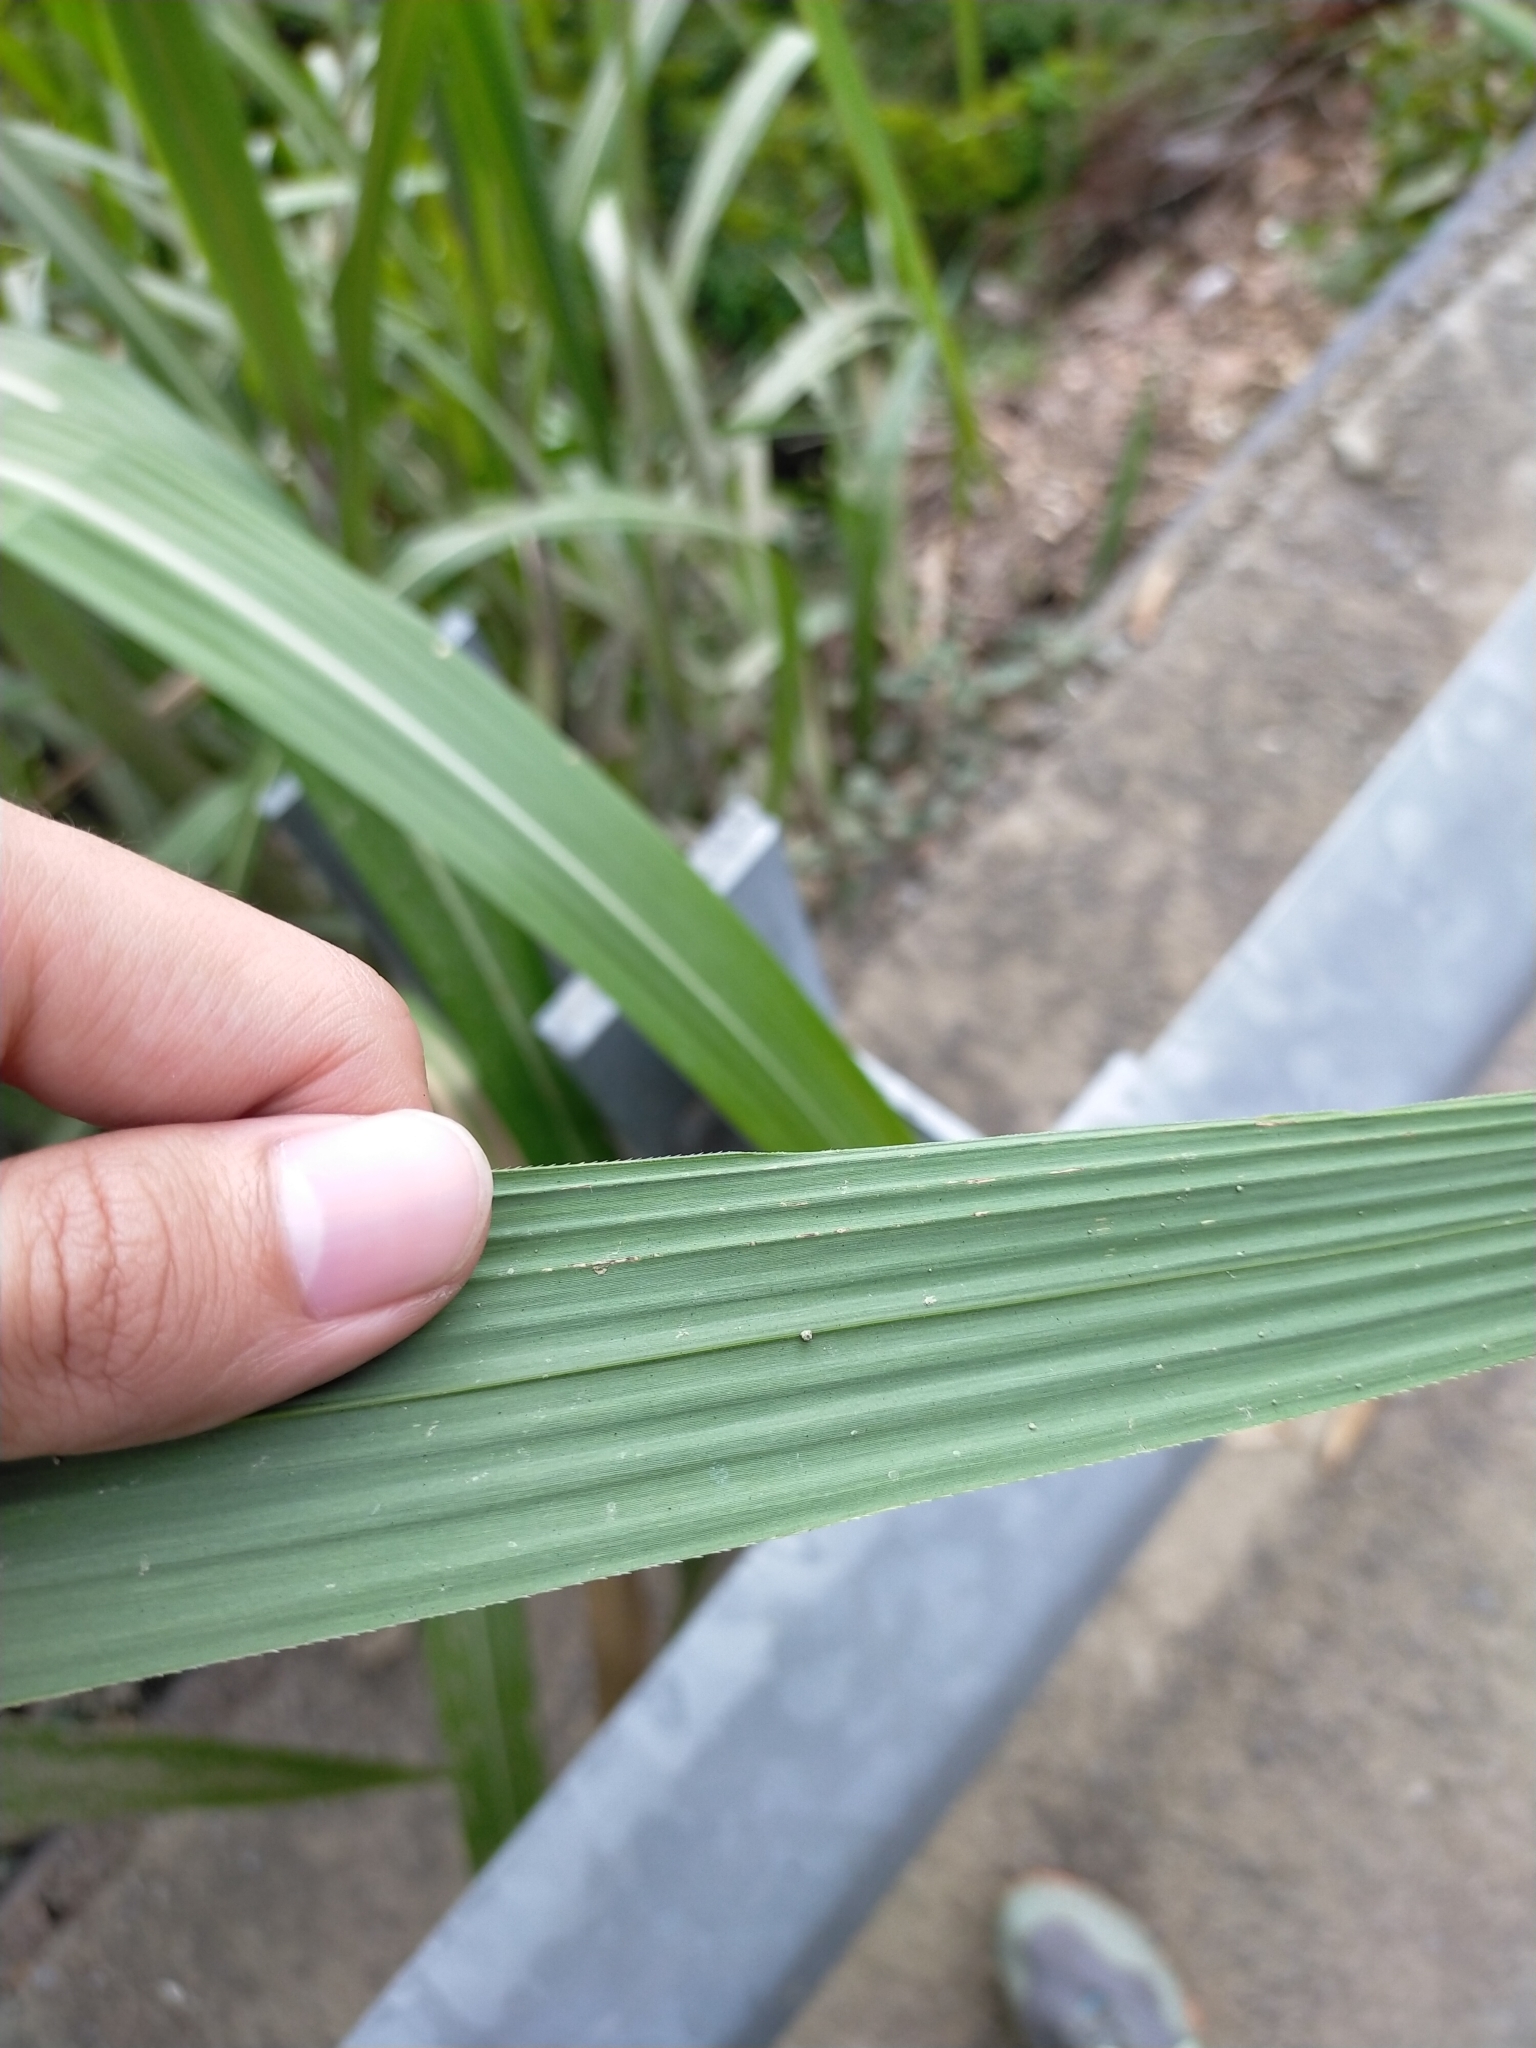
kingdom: Plantae
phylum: Tracheophyta
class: Liliopsida
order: Poales
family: Poaceae
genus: Cenchrus
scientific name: Cenchrus purpureus
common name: Elephant grass
